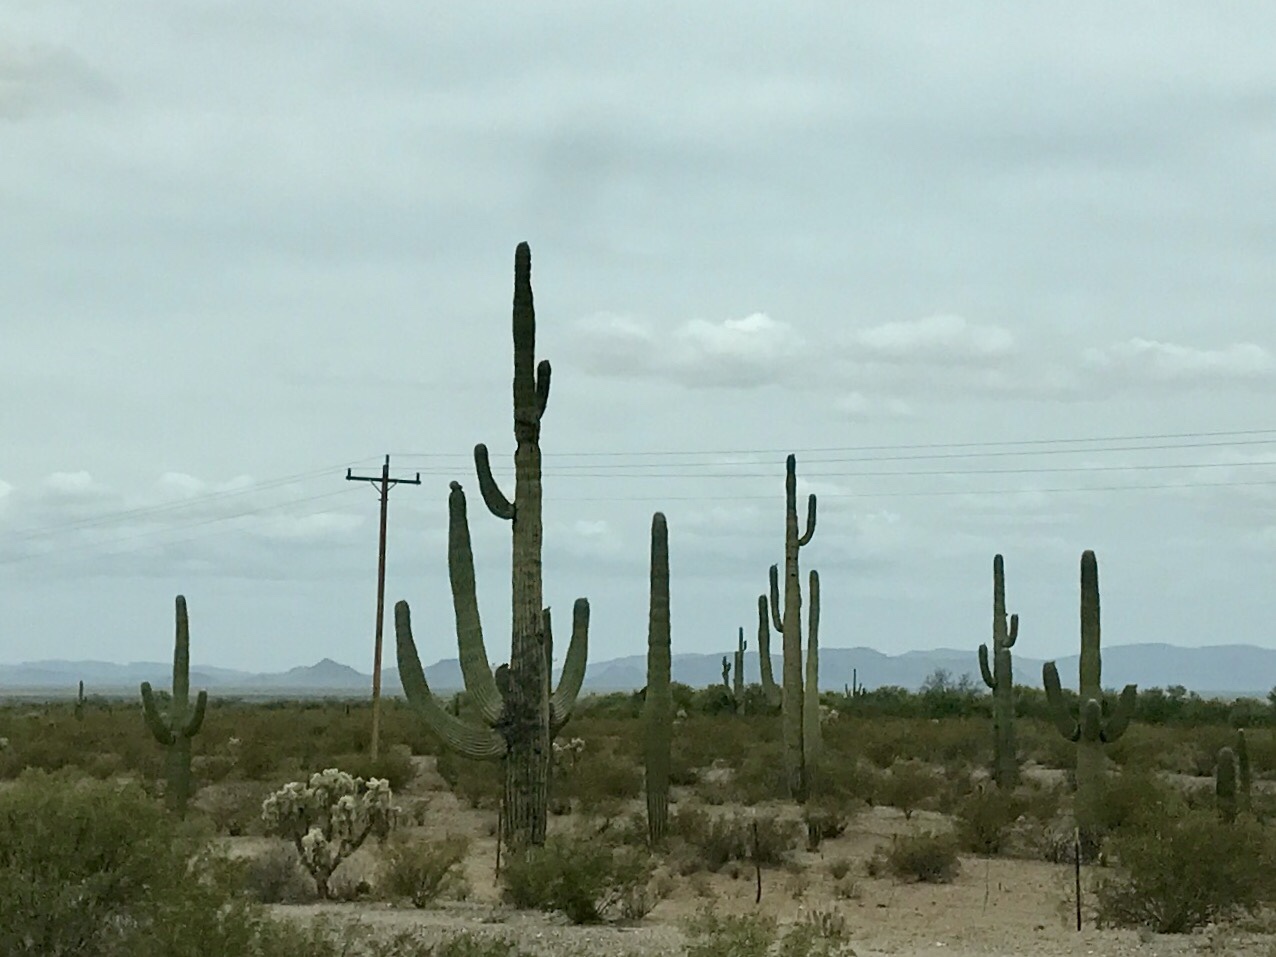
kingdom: Plantae
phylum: Tracheophyta
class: Magnoliopsida
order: Caryophyllales
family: Cactaceae
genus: Carnegiea
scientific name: Carnegiea gigantea
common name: Saguaro
